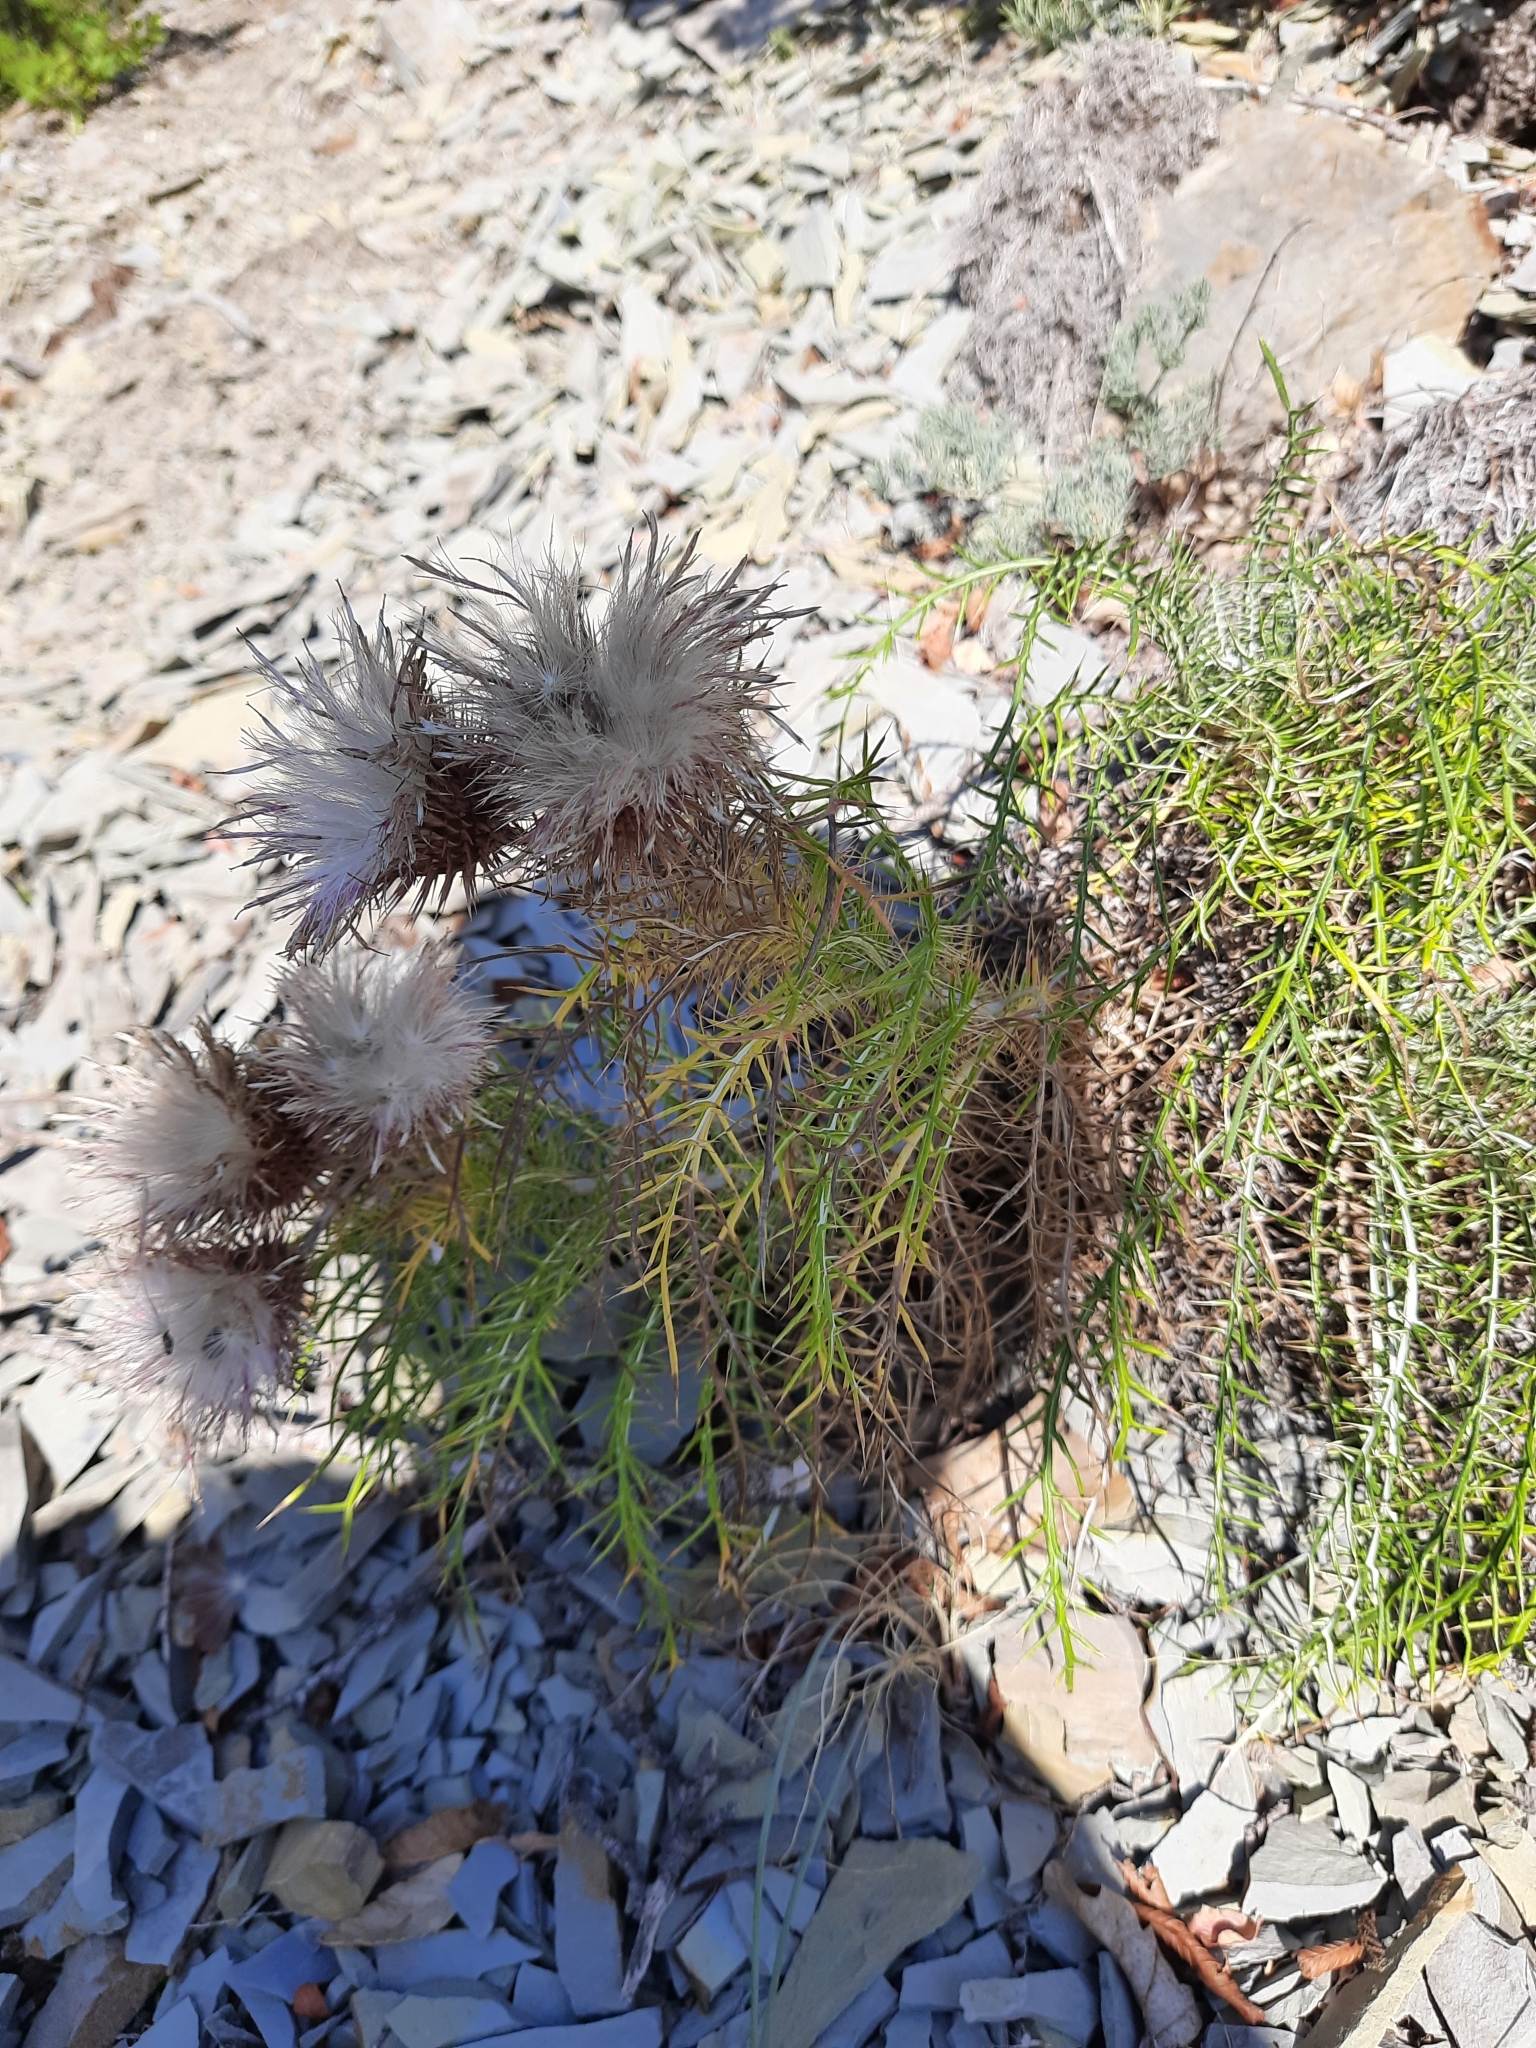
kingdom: Plantae
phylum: Tracheophyta
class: Magnoliopsida
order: Asterales
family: Asteraceae
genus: Ptilostemon
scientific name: Ptilostemon echinocephalus
